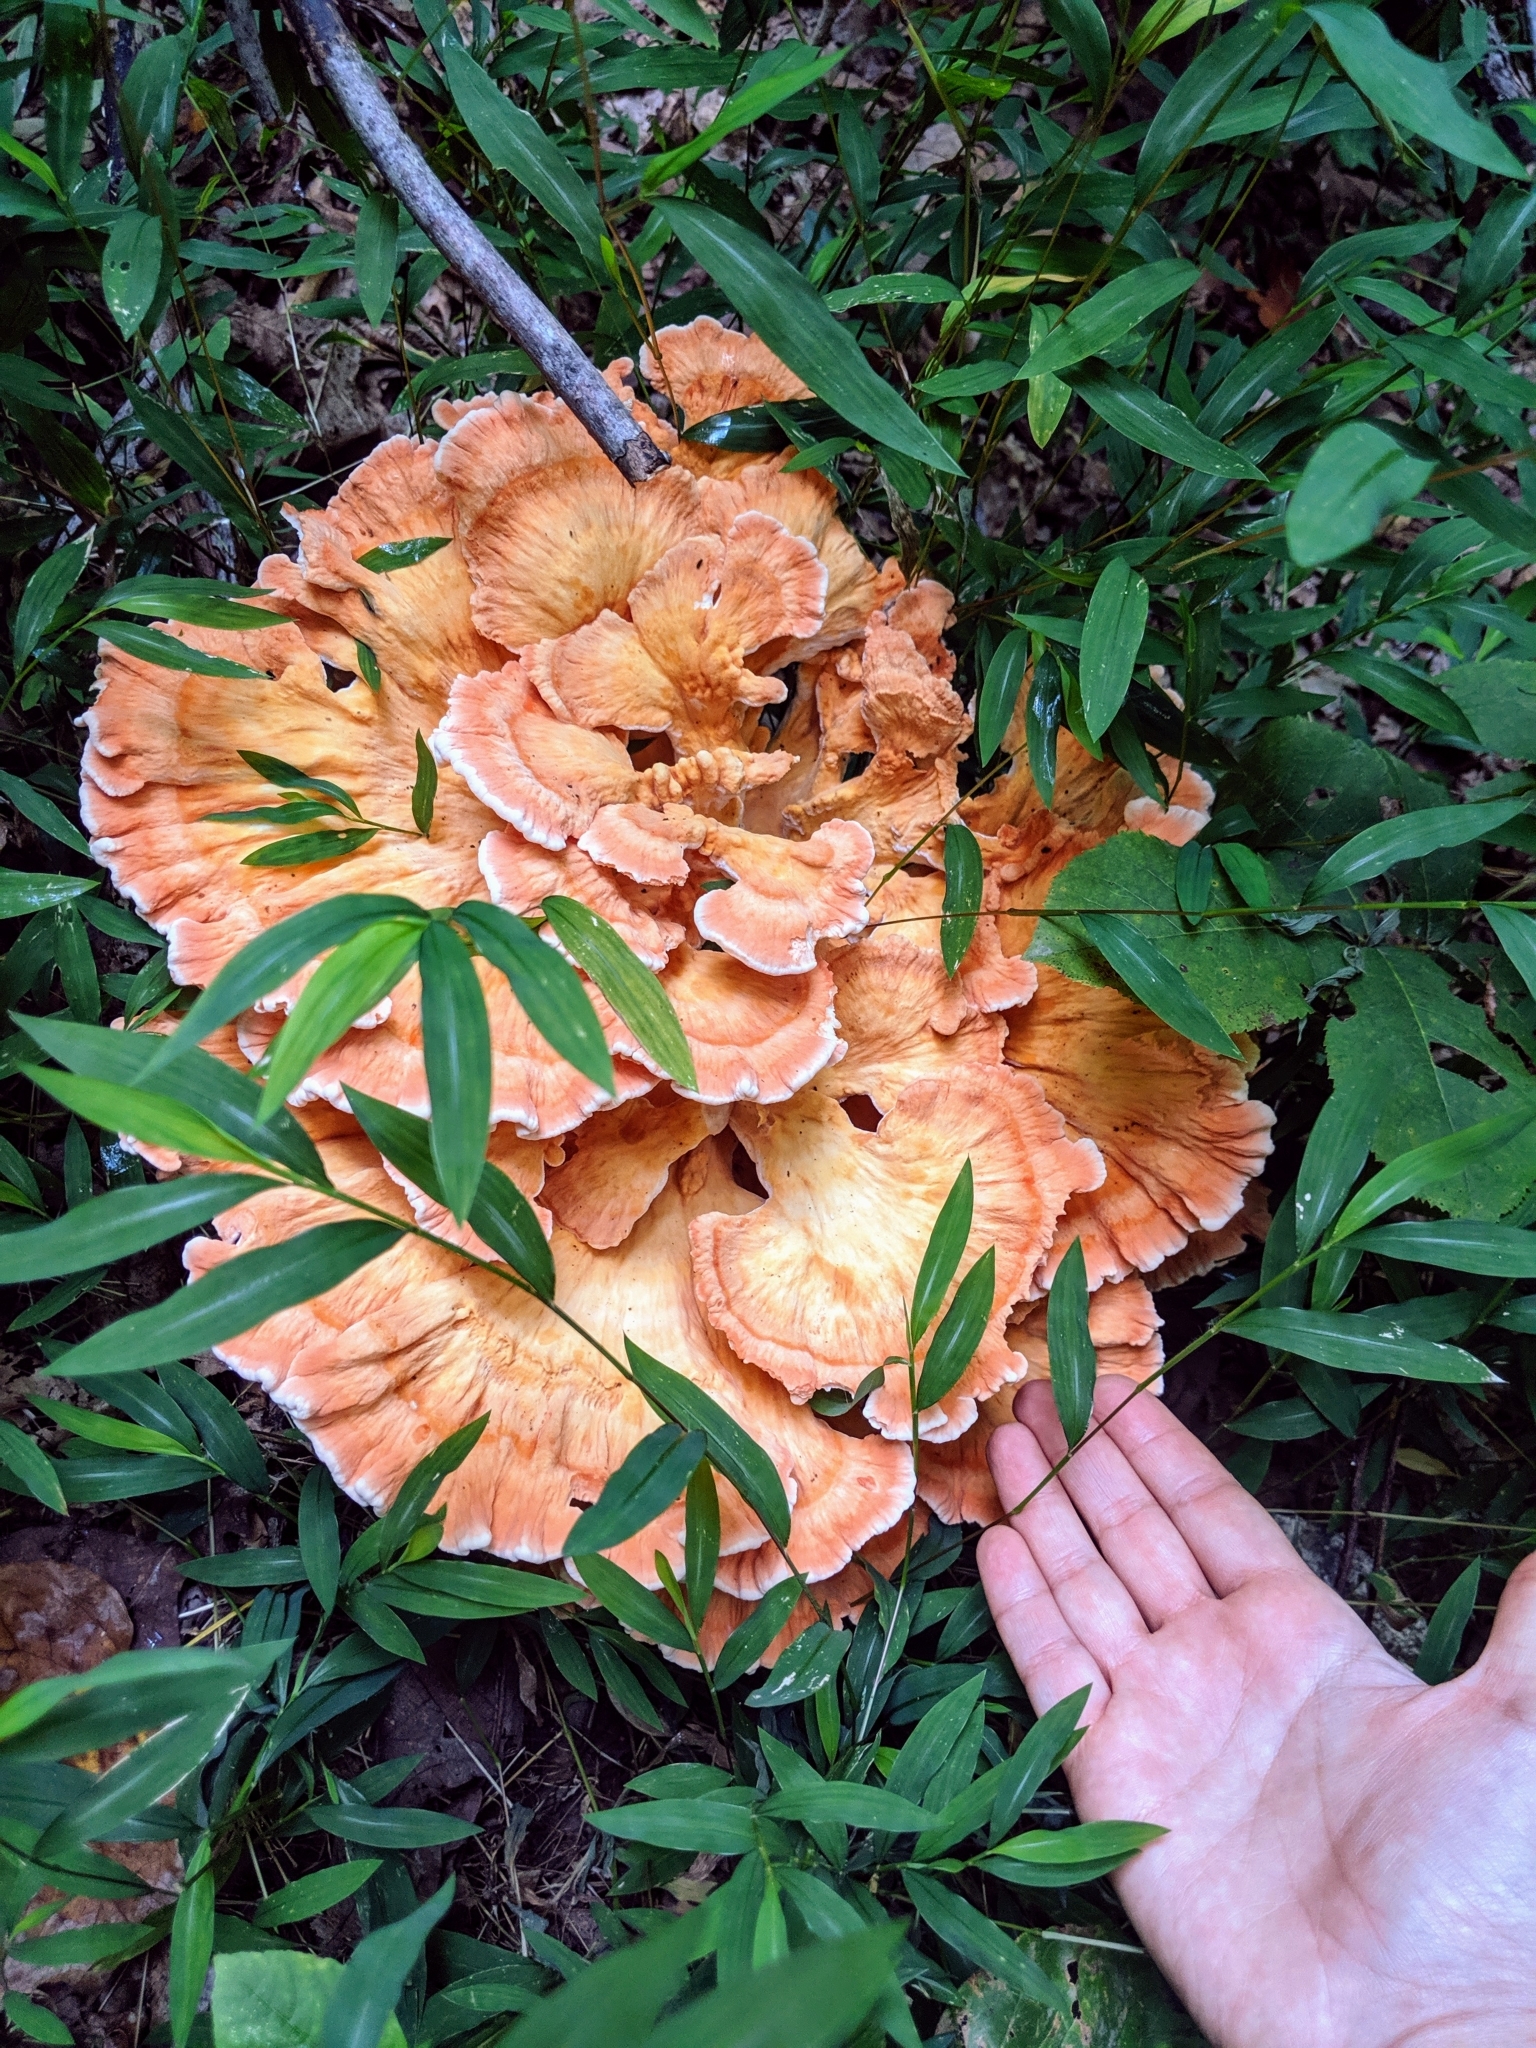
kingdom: Fungi
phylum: Basidiomycota
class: Agaricomycetes
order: Polyporales
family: Laetiporaceae
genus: Laetiporus
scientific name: Laetiporus sulphureus
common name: Chicken of the woods
